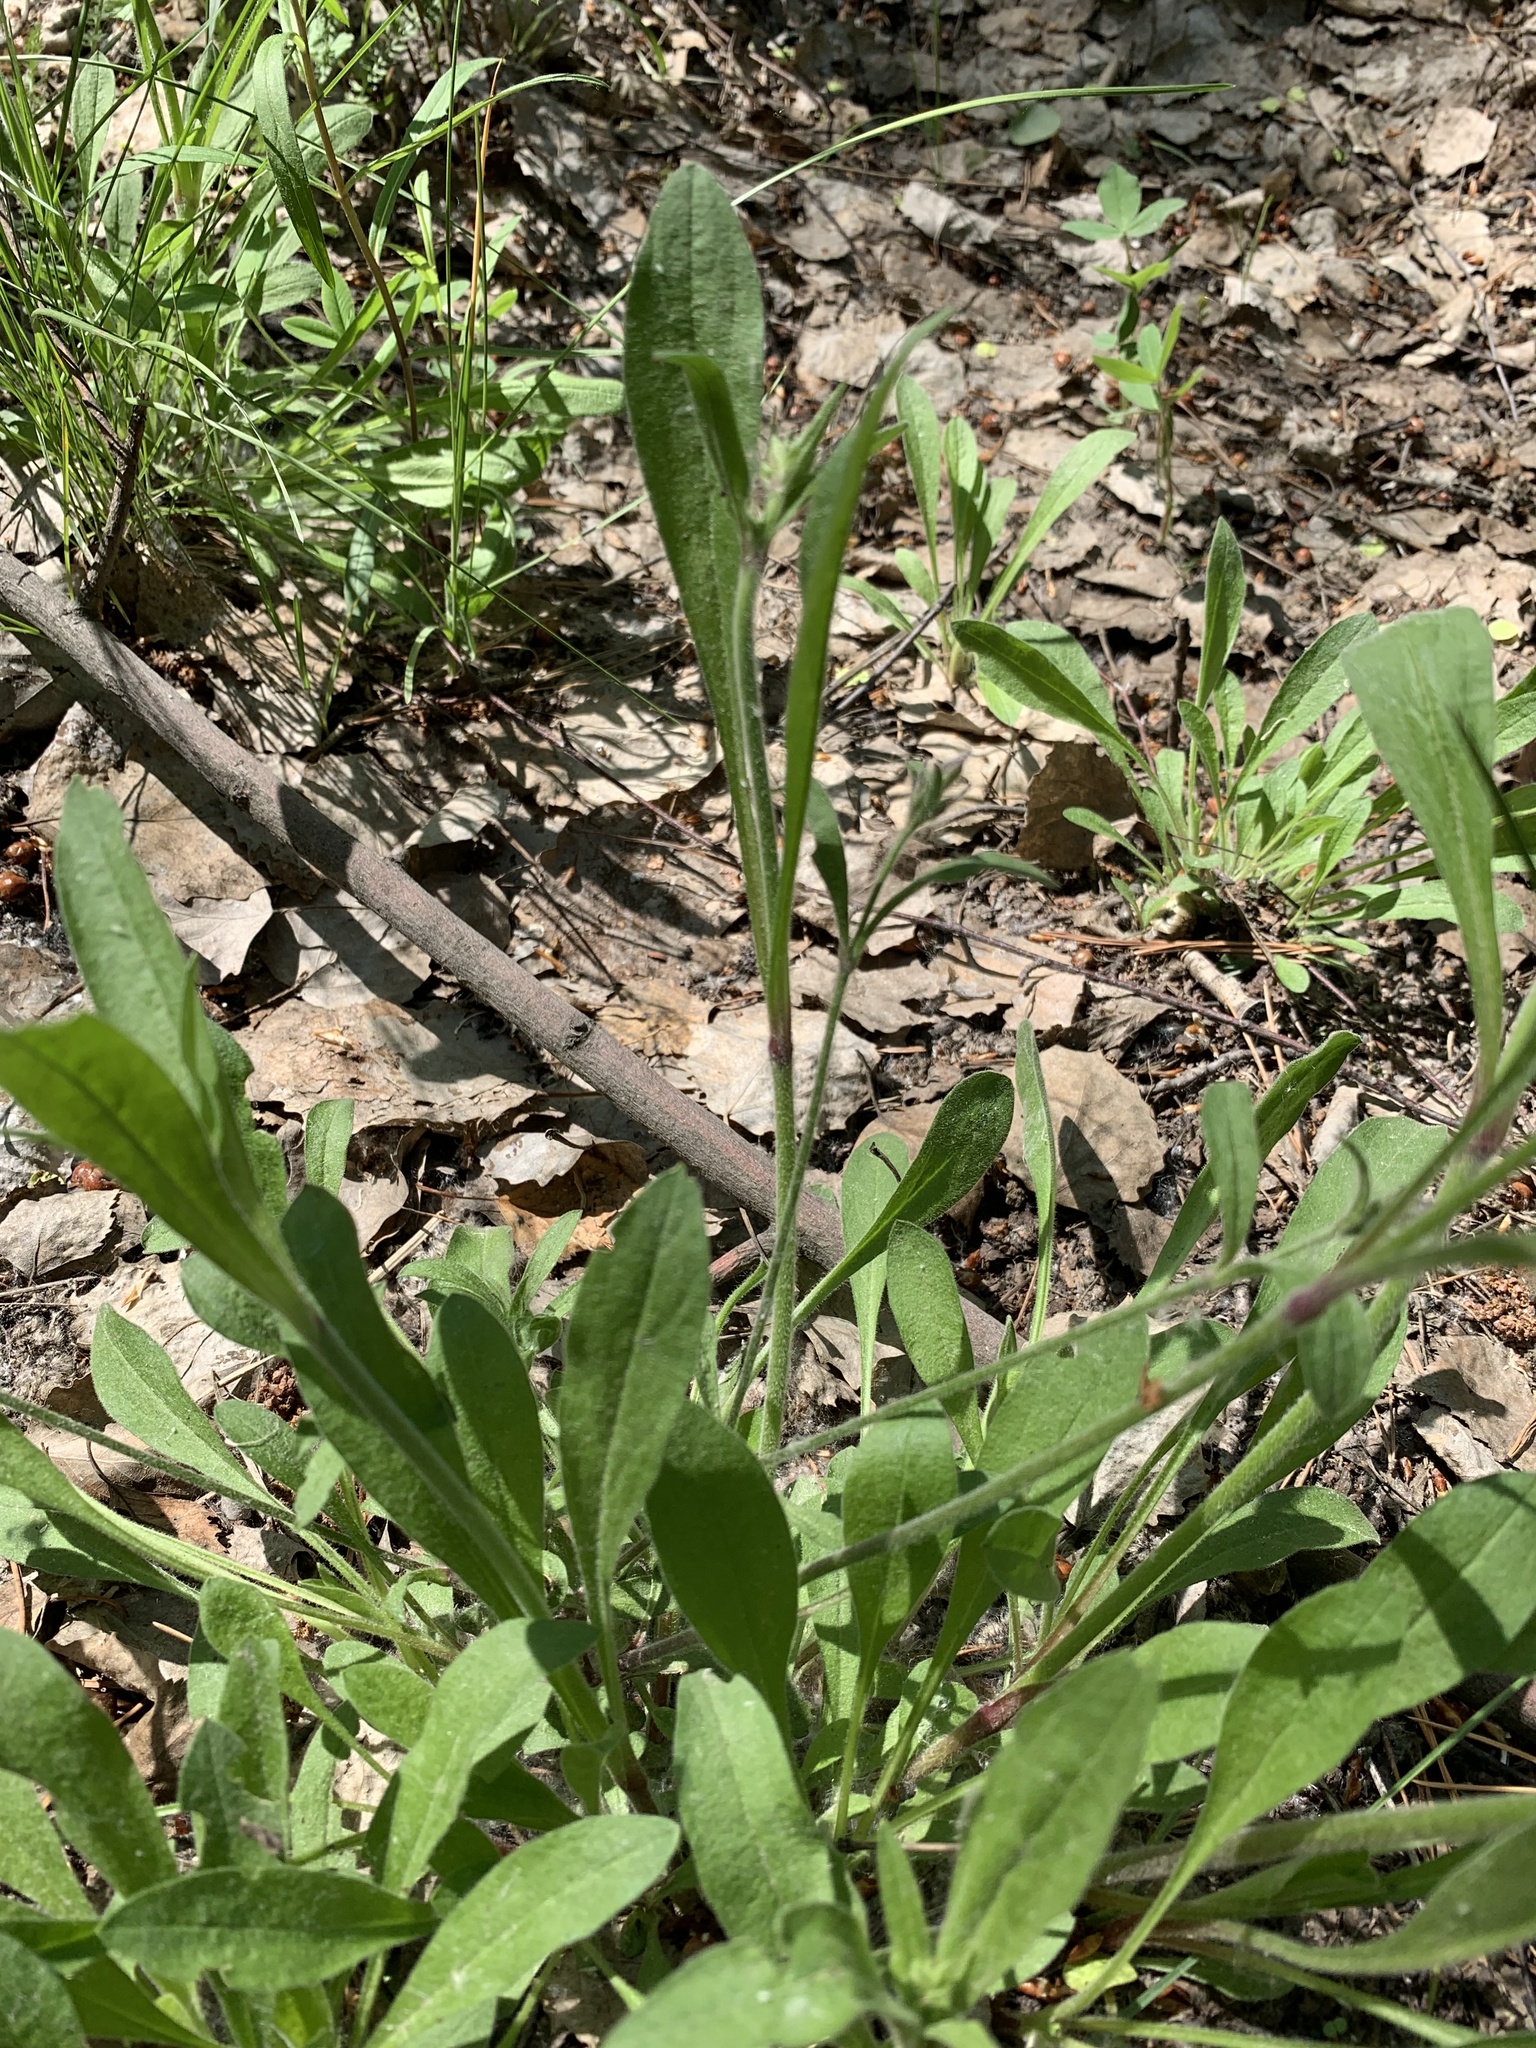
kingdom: Plantae
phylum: Tracheophyta
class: Magnoliopsida
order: Caryophyllales
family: Caryophyllaceae
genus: Silene
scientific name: Silene nutans
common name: Nottingham catchfly
